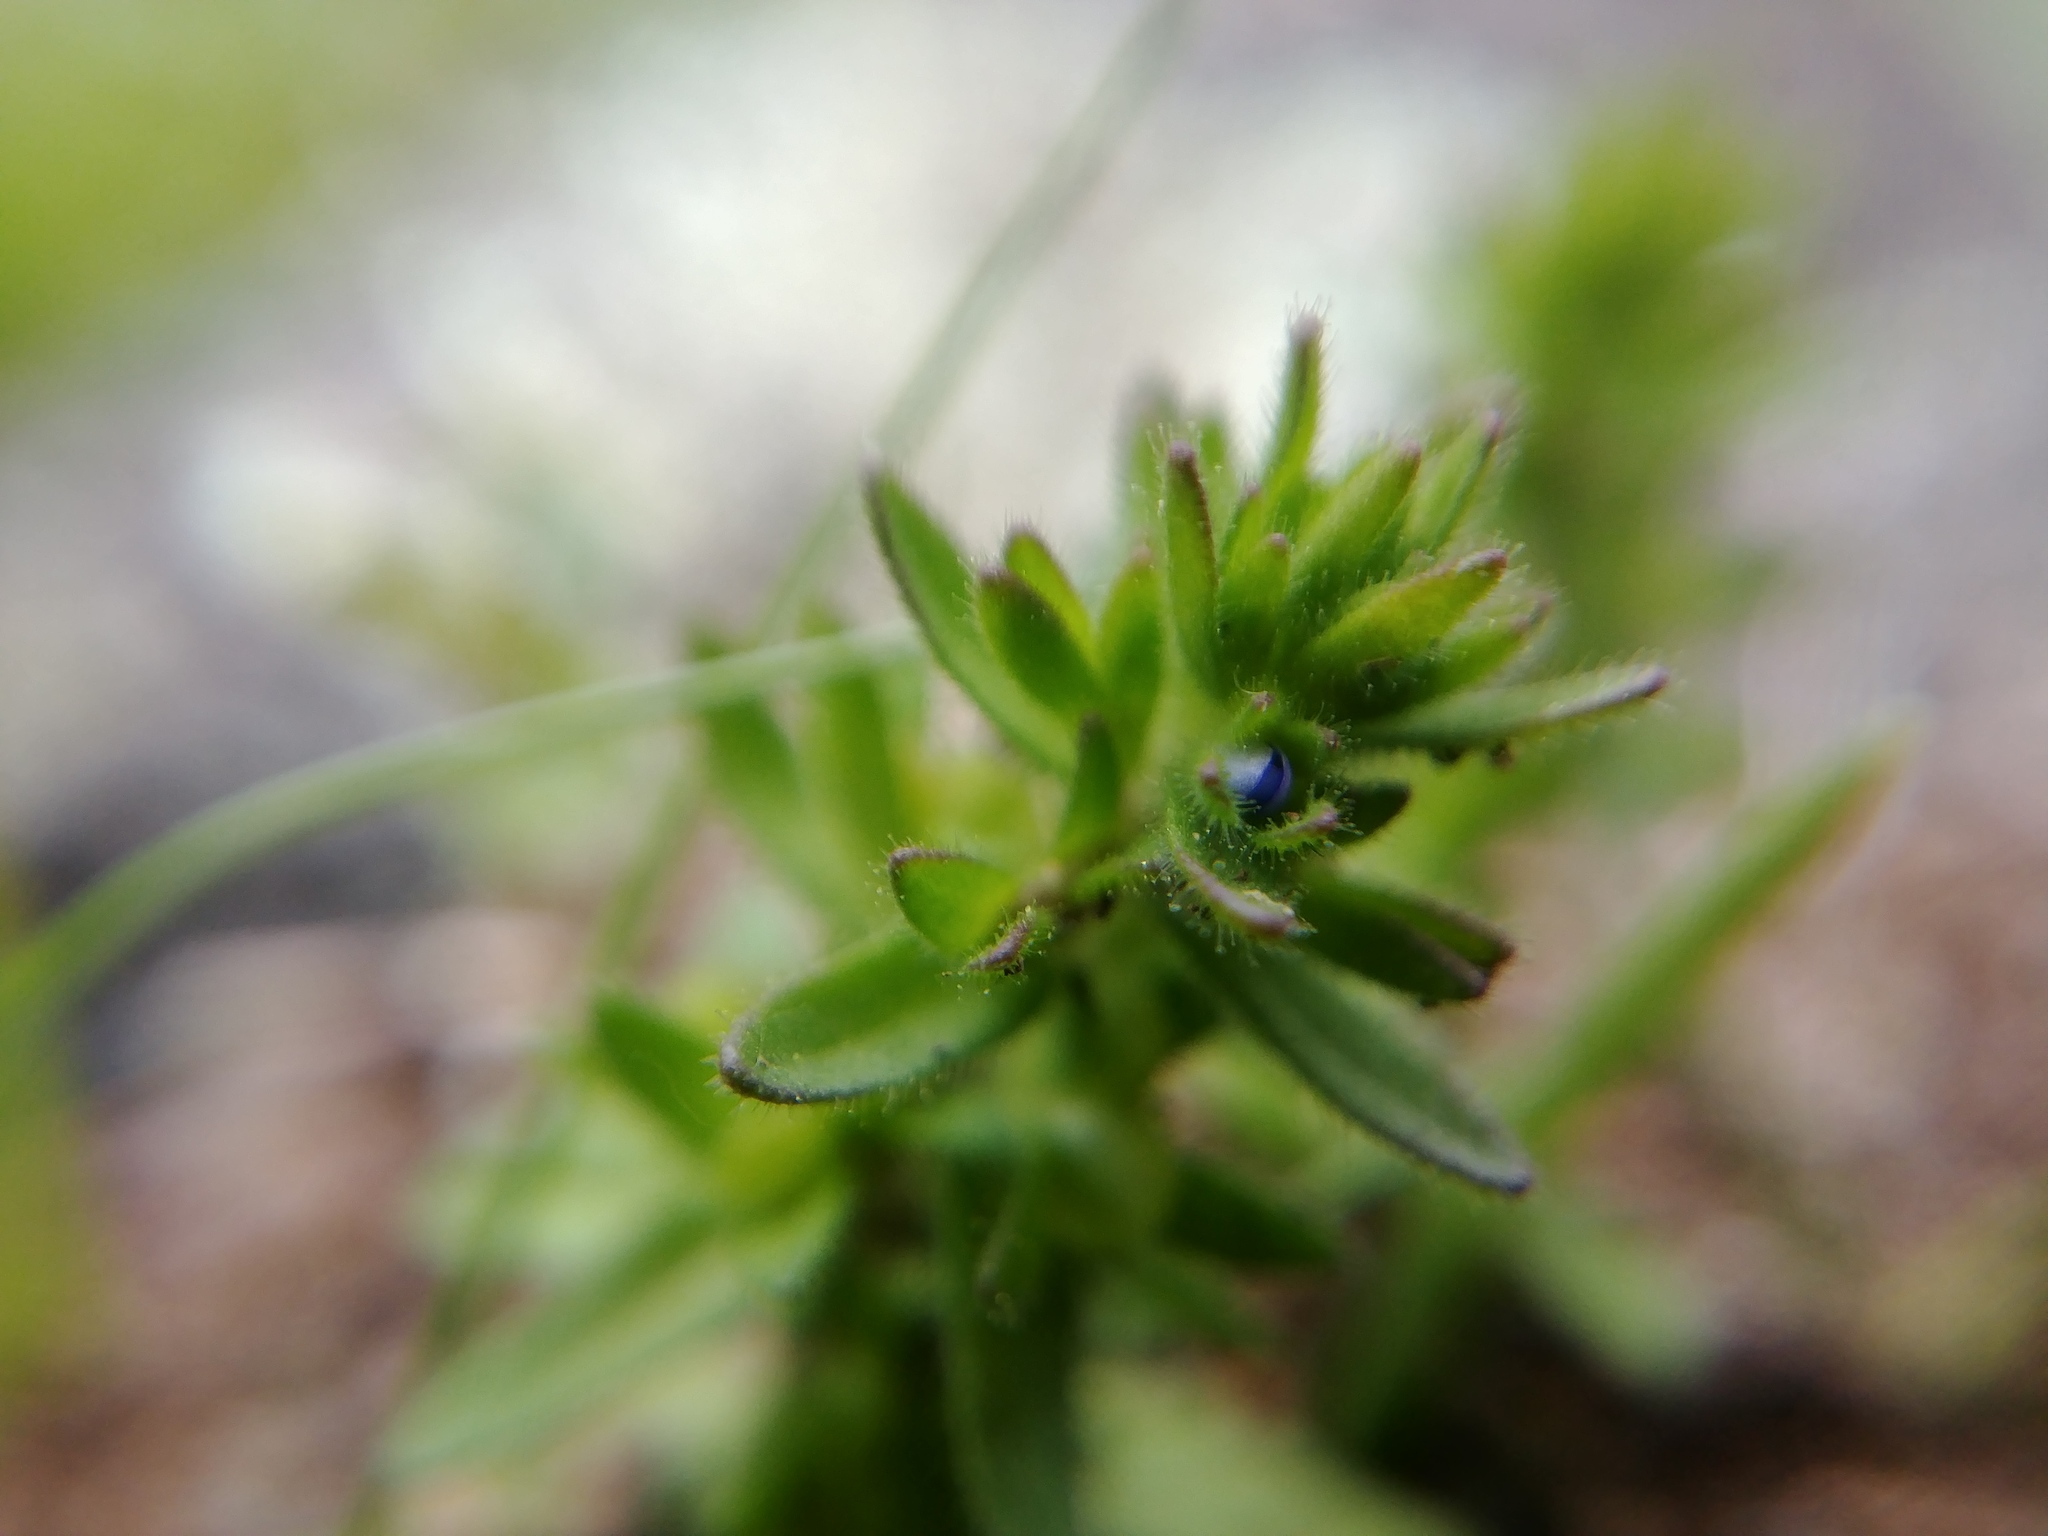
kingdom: Plantae
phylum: Tracheophyta
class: Magnoliopsida
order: Lamiales
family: Plantaginaceae
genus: Veronica
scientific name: Veronica arvensis
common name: Corn speedwell
